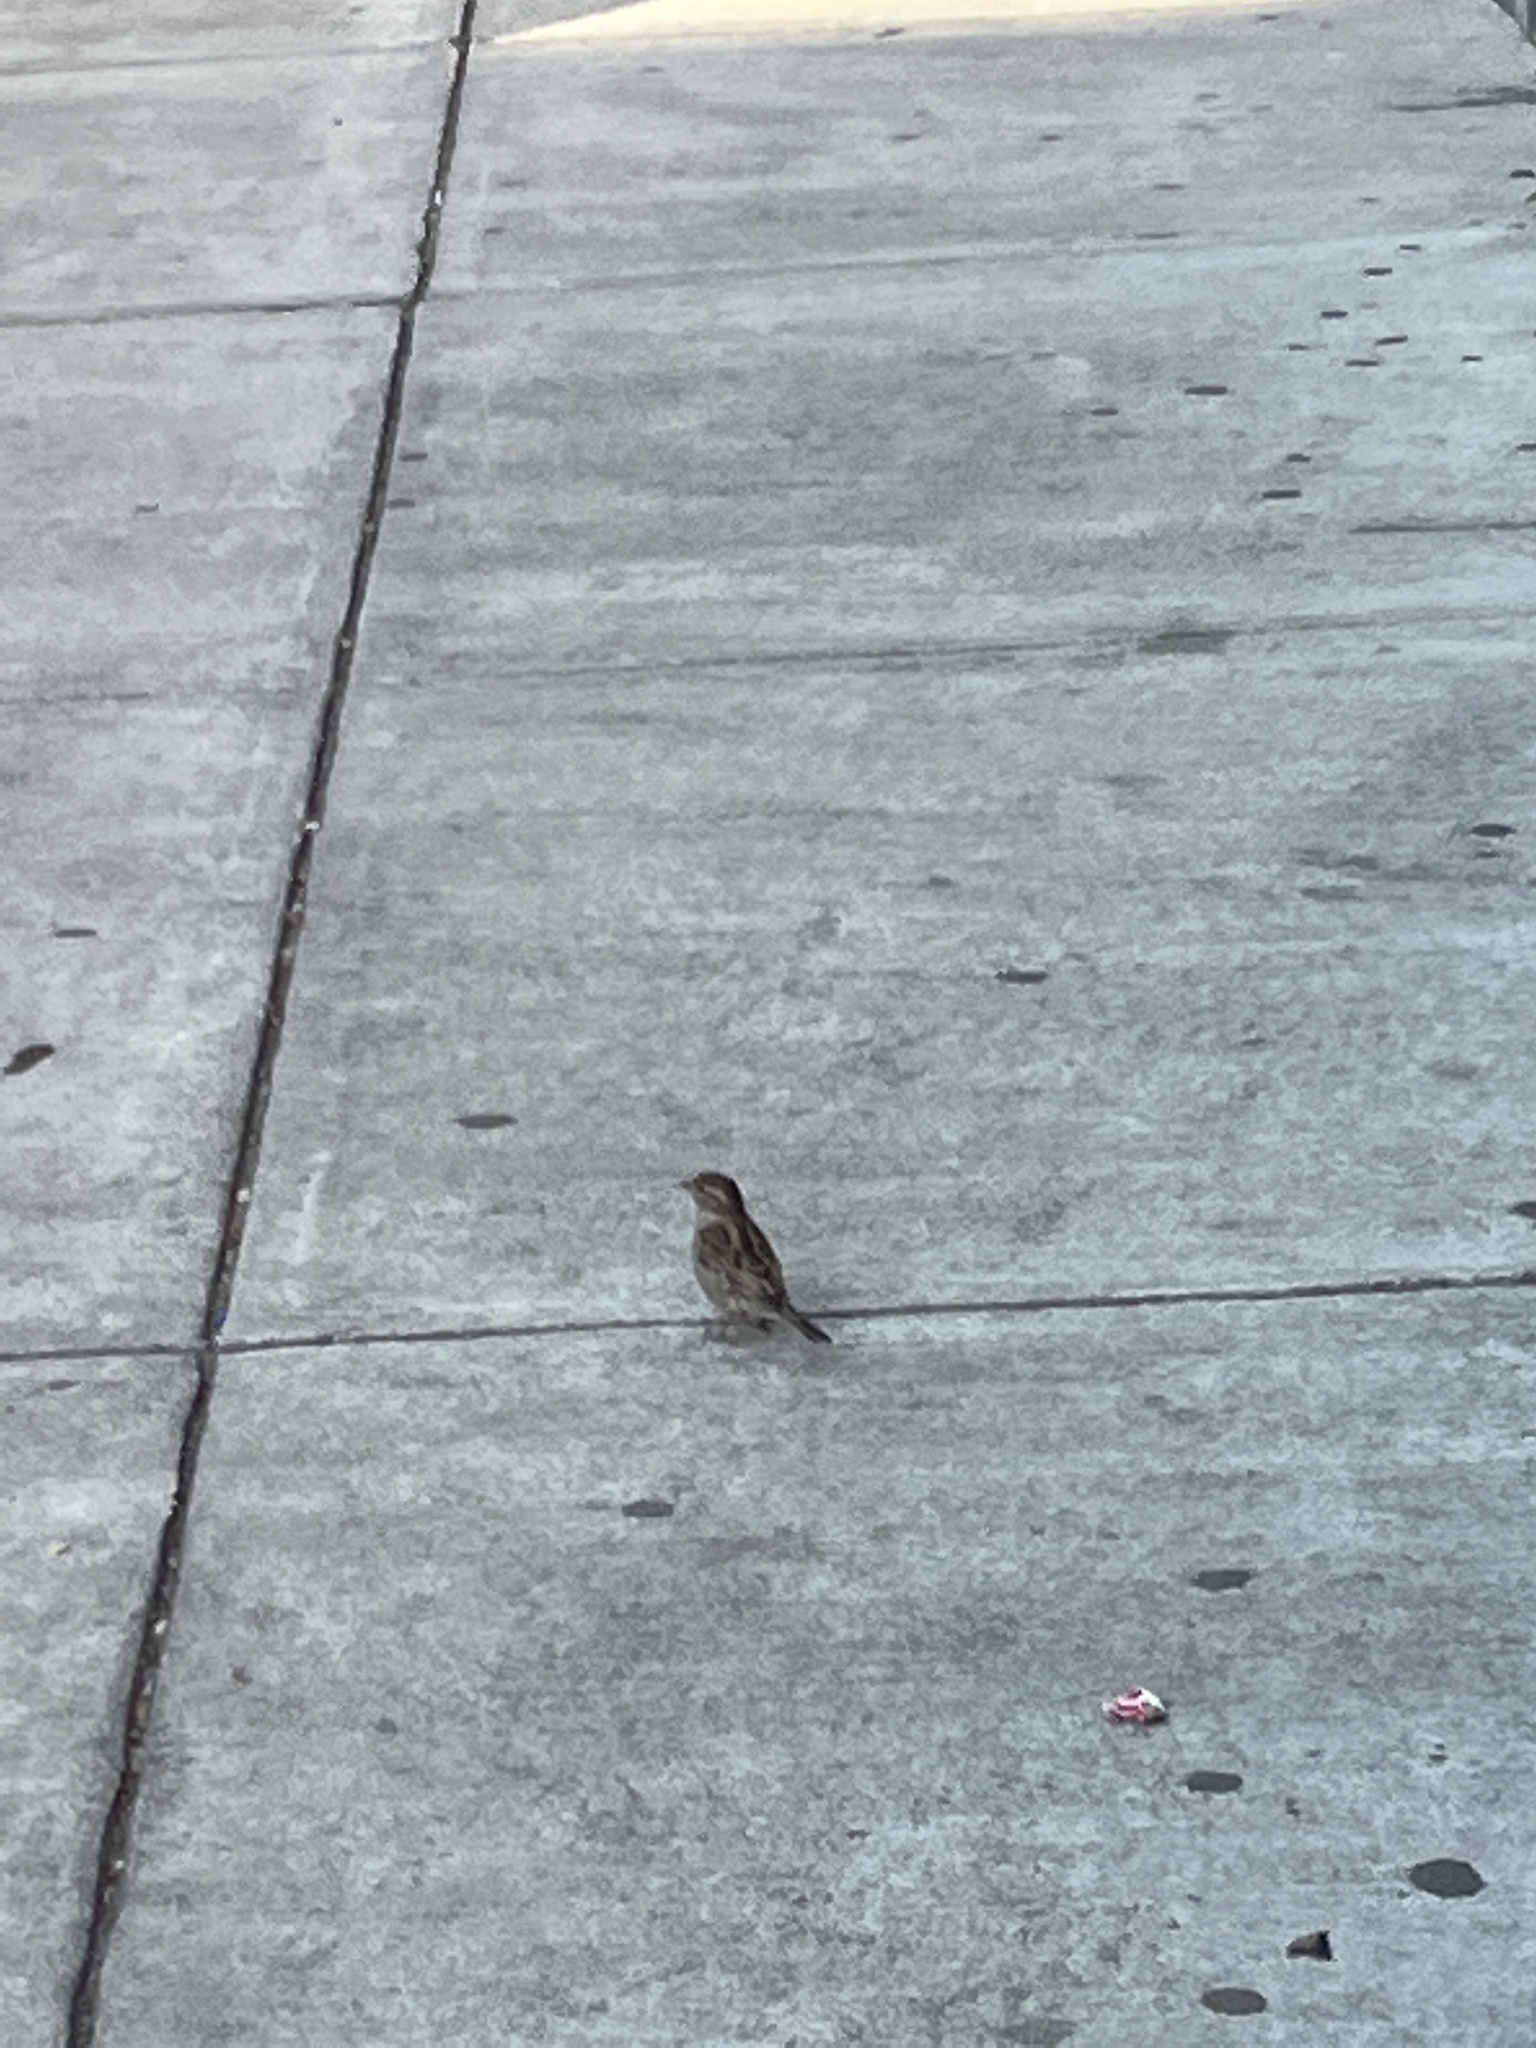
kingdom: Animalia
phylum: Chordata
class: Aves
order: Passeriformes
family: Passeridae
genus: Passer
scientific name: Passer domesticus
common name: House sparrow
